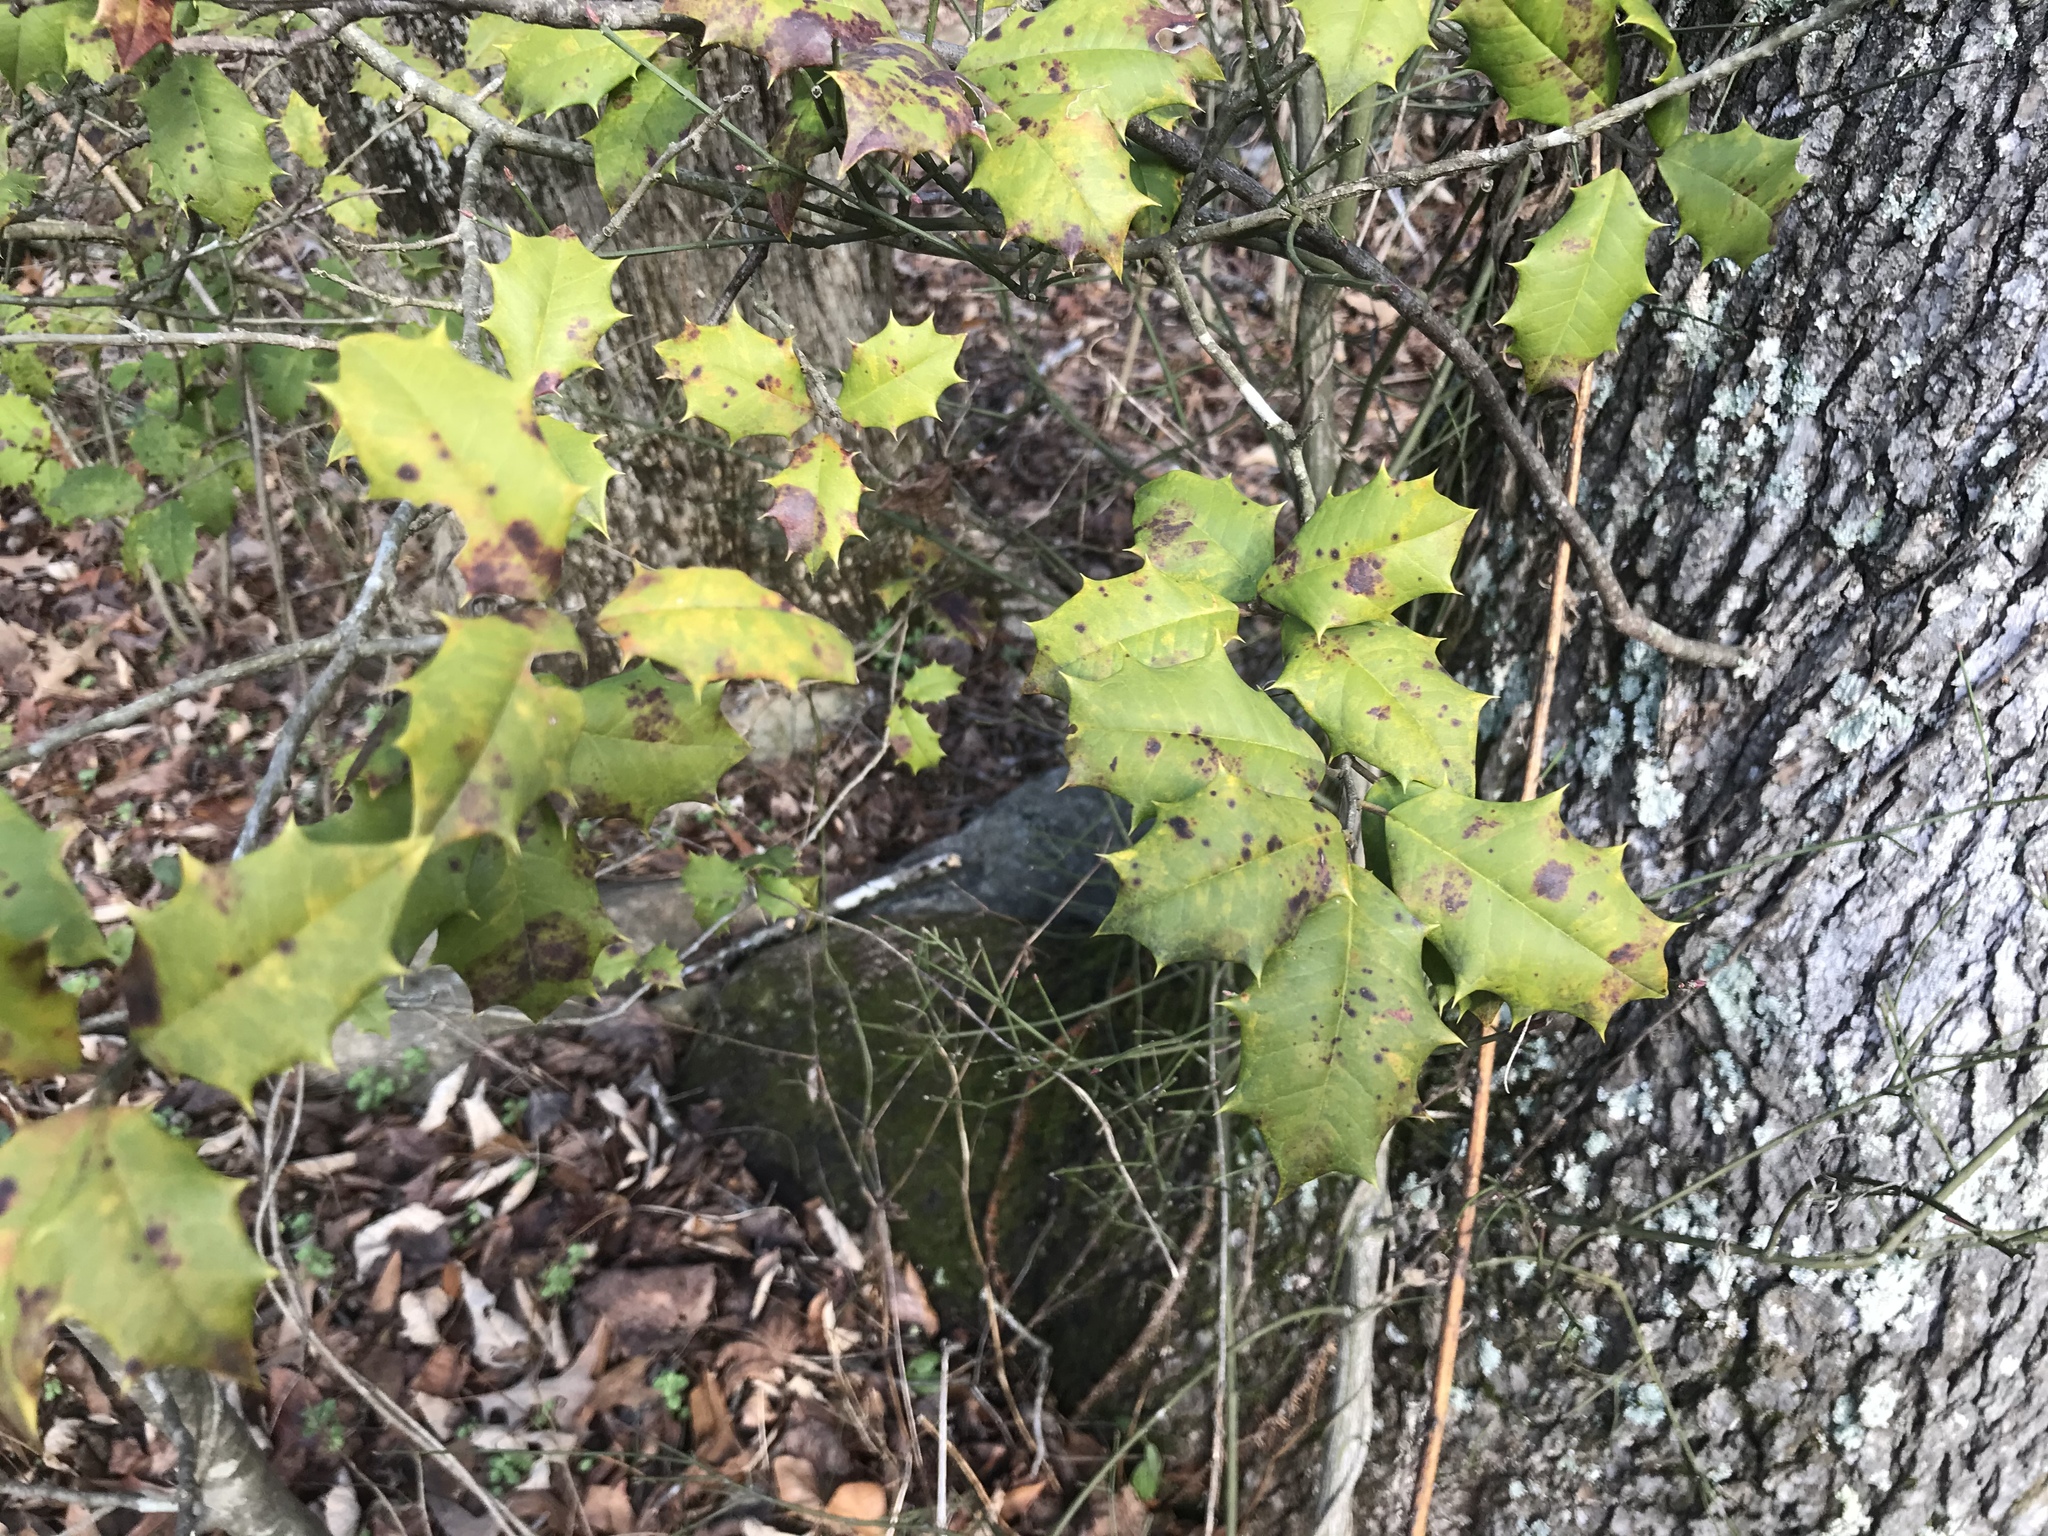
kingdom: Plantae
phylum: Tracheophyta
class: Magnoliopsida
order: Aquifoliales
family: Aquifoliaceae
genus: Ilex
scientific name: Ilex opaca
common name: American holly
